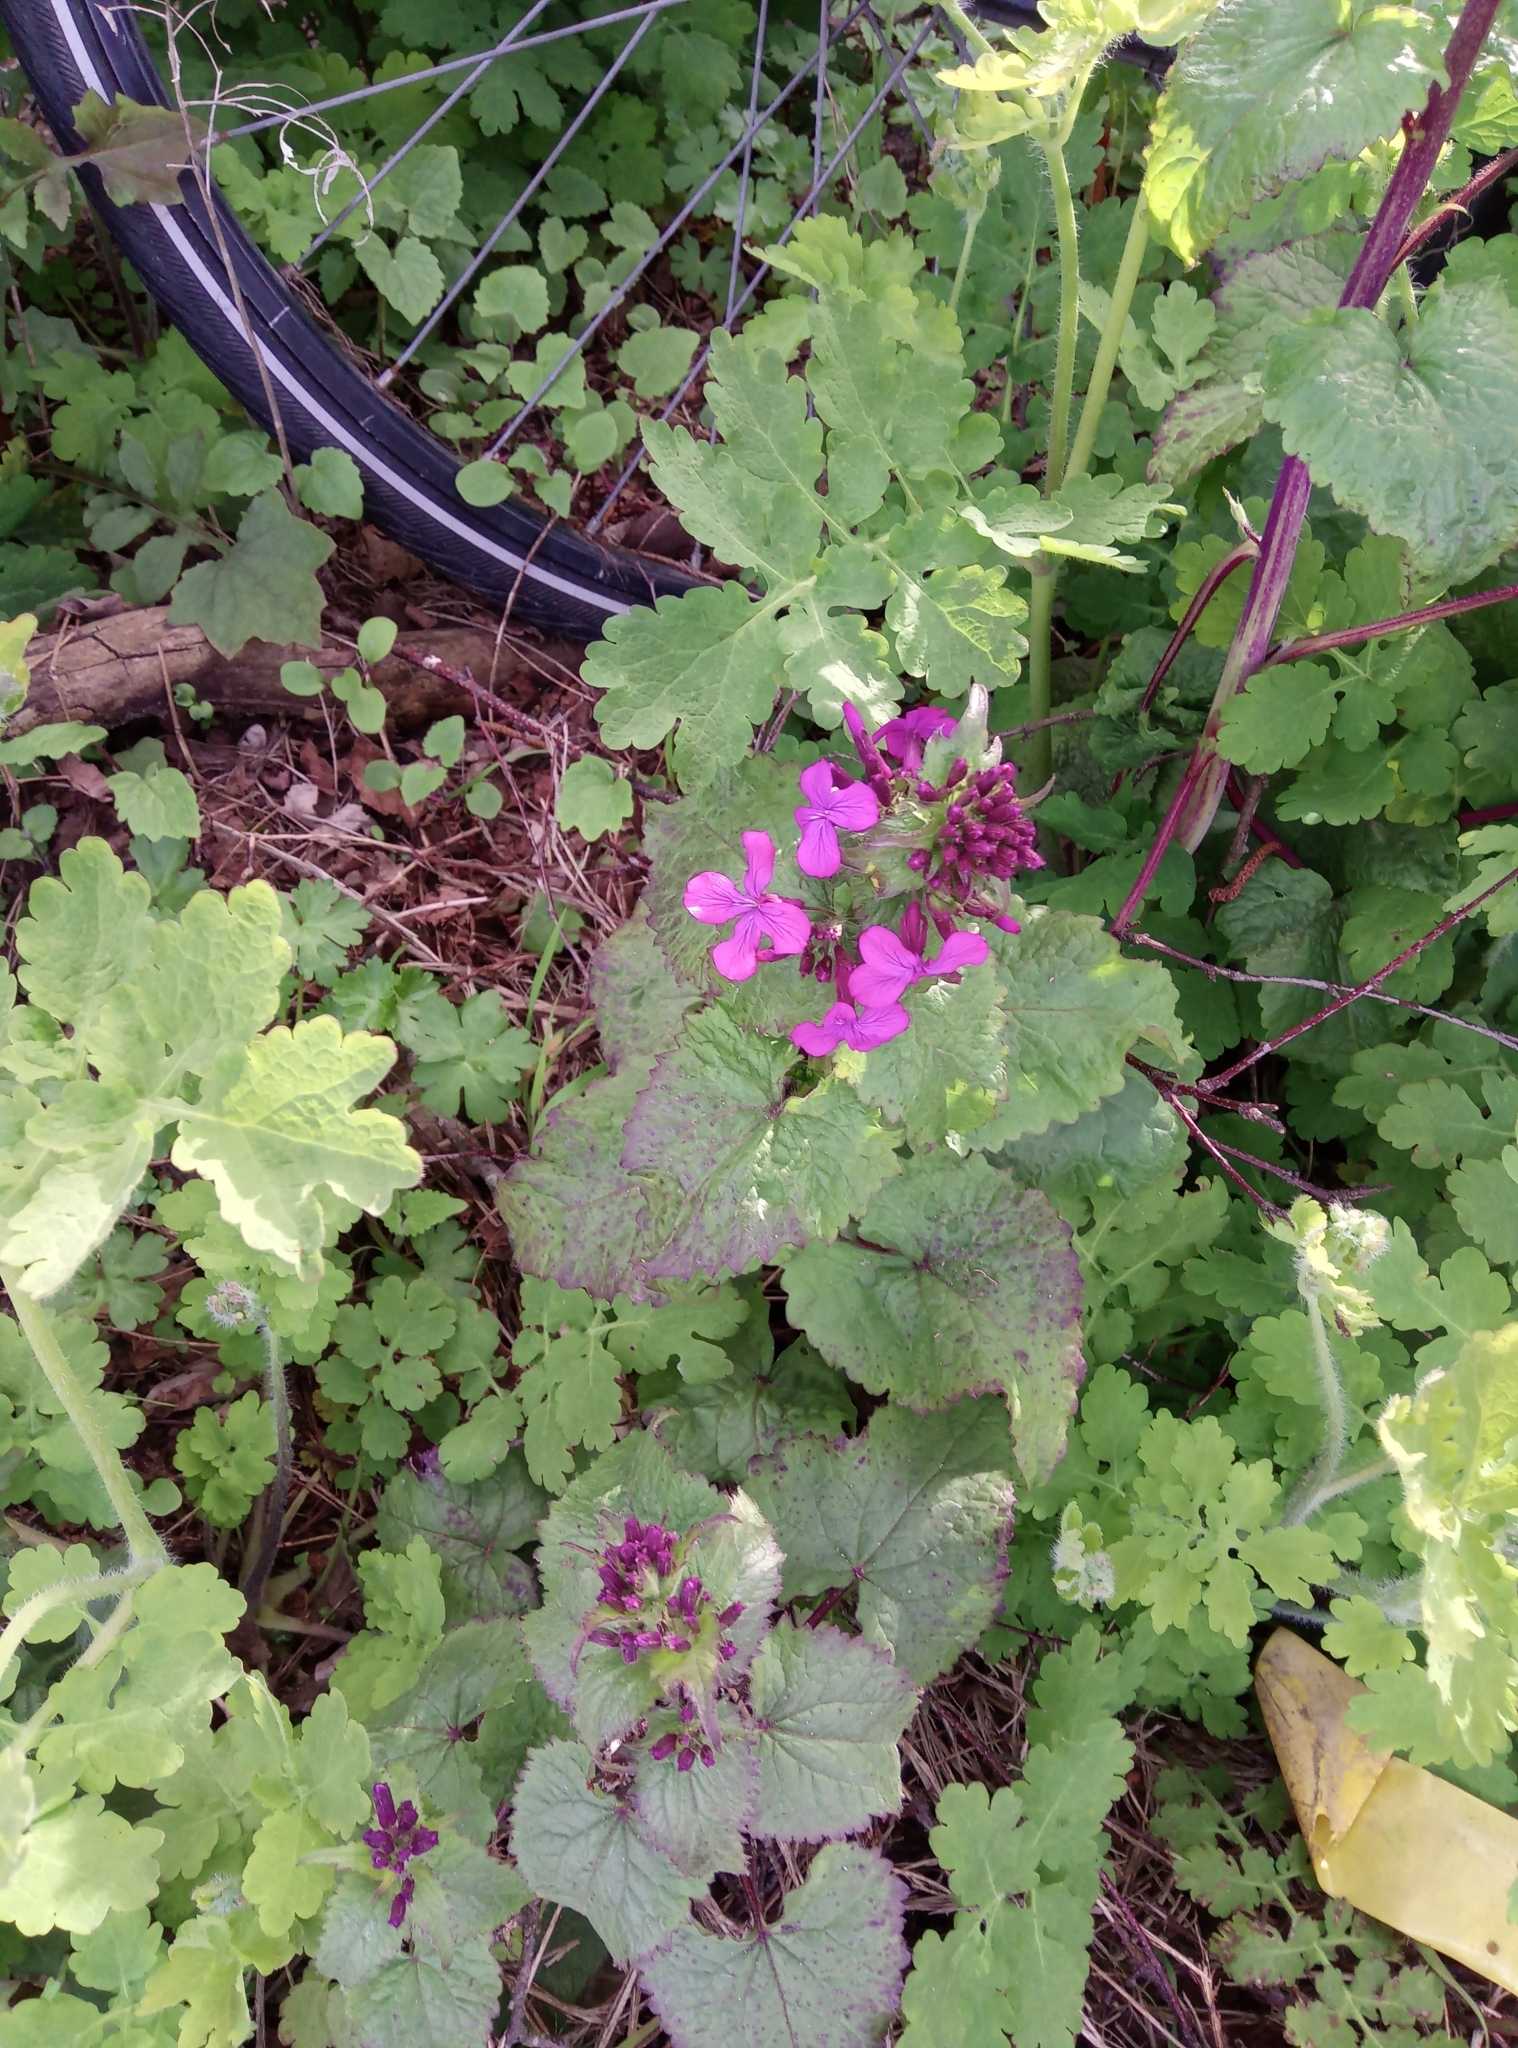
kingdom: Plantae
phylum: Tracheophyta
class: Magnoliopsida
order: Brassicales
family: Brassicaceae
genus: Lunaria
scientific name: Lunaria annua
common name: Honesty
